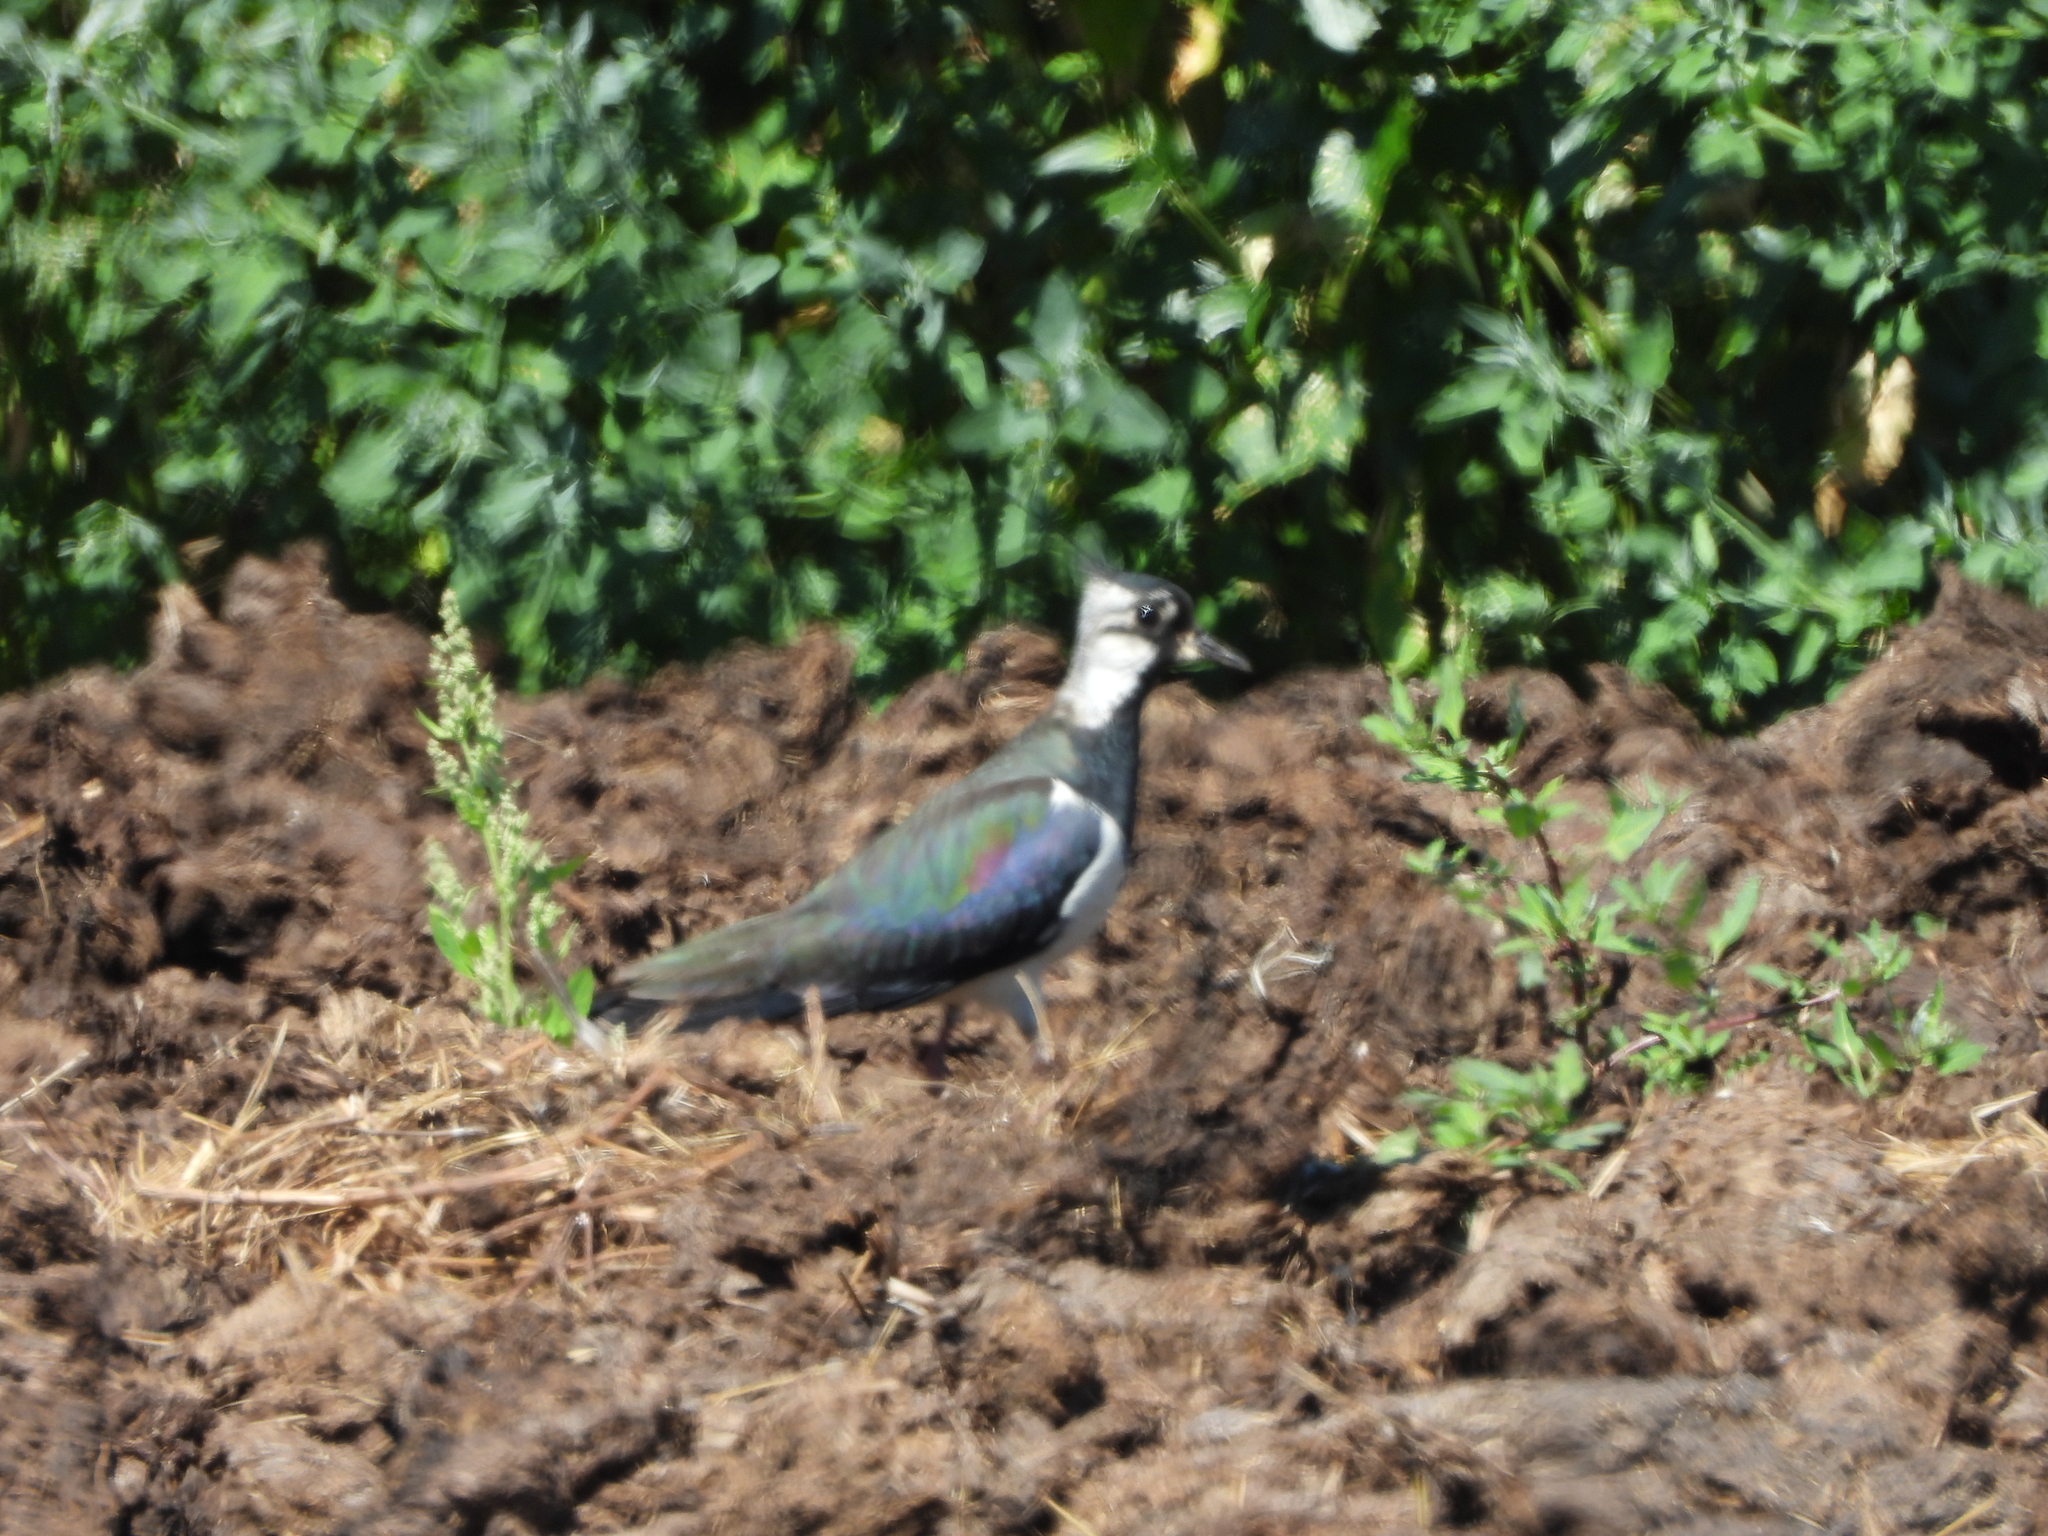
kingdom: Animalia
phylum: Chordata
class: Aves
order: Charadriiformes
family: Charadriidae
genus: Vanellus
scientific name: Vanellus vanellus
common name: Northern lapwing
